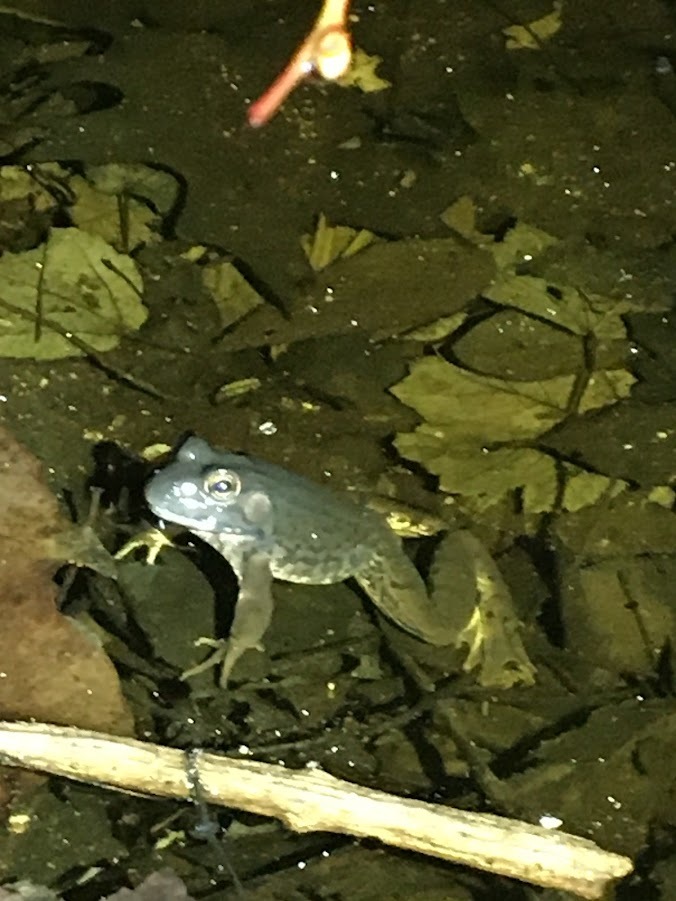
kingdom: Animalia
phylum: Chordata
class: Amphibia
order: Anura
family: Ranidae
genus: Lithobates
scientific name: Lithobates clamitans
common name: Green frog
